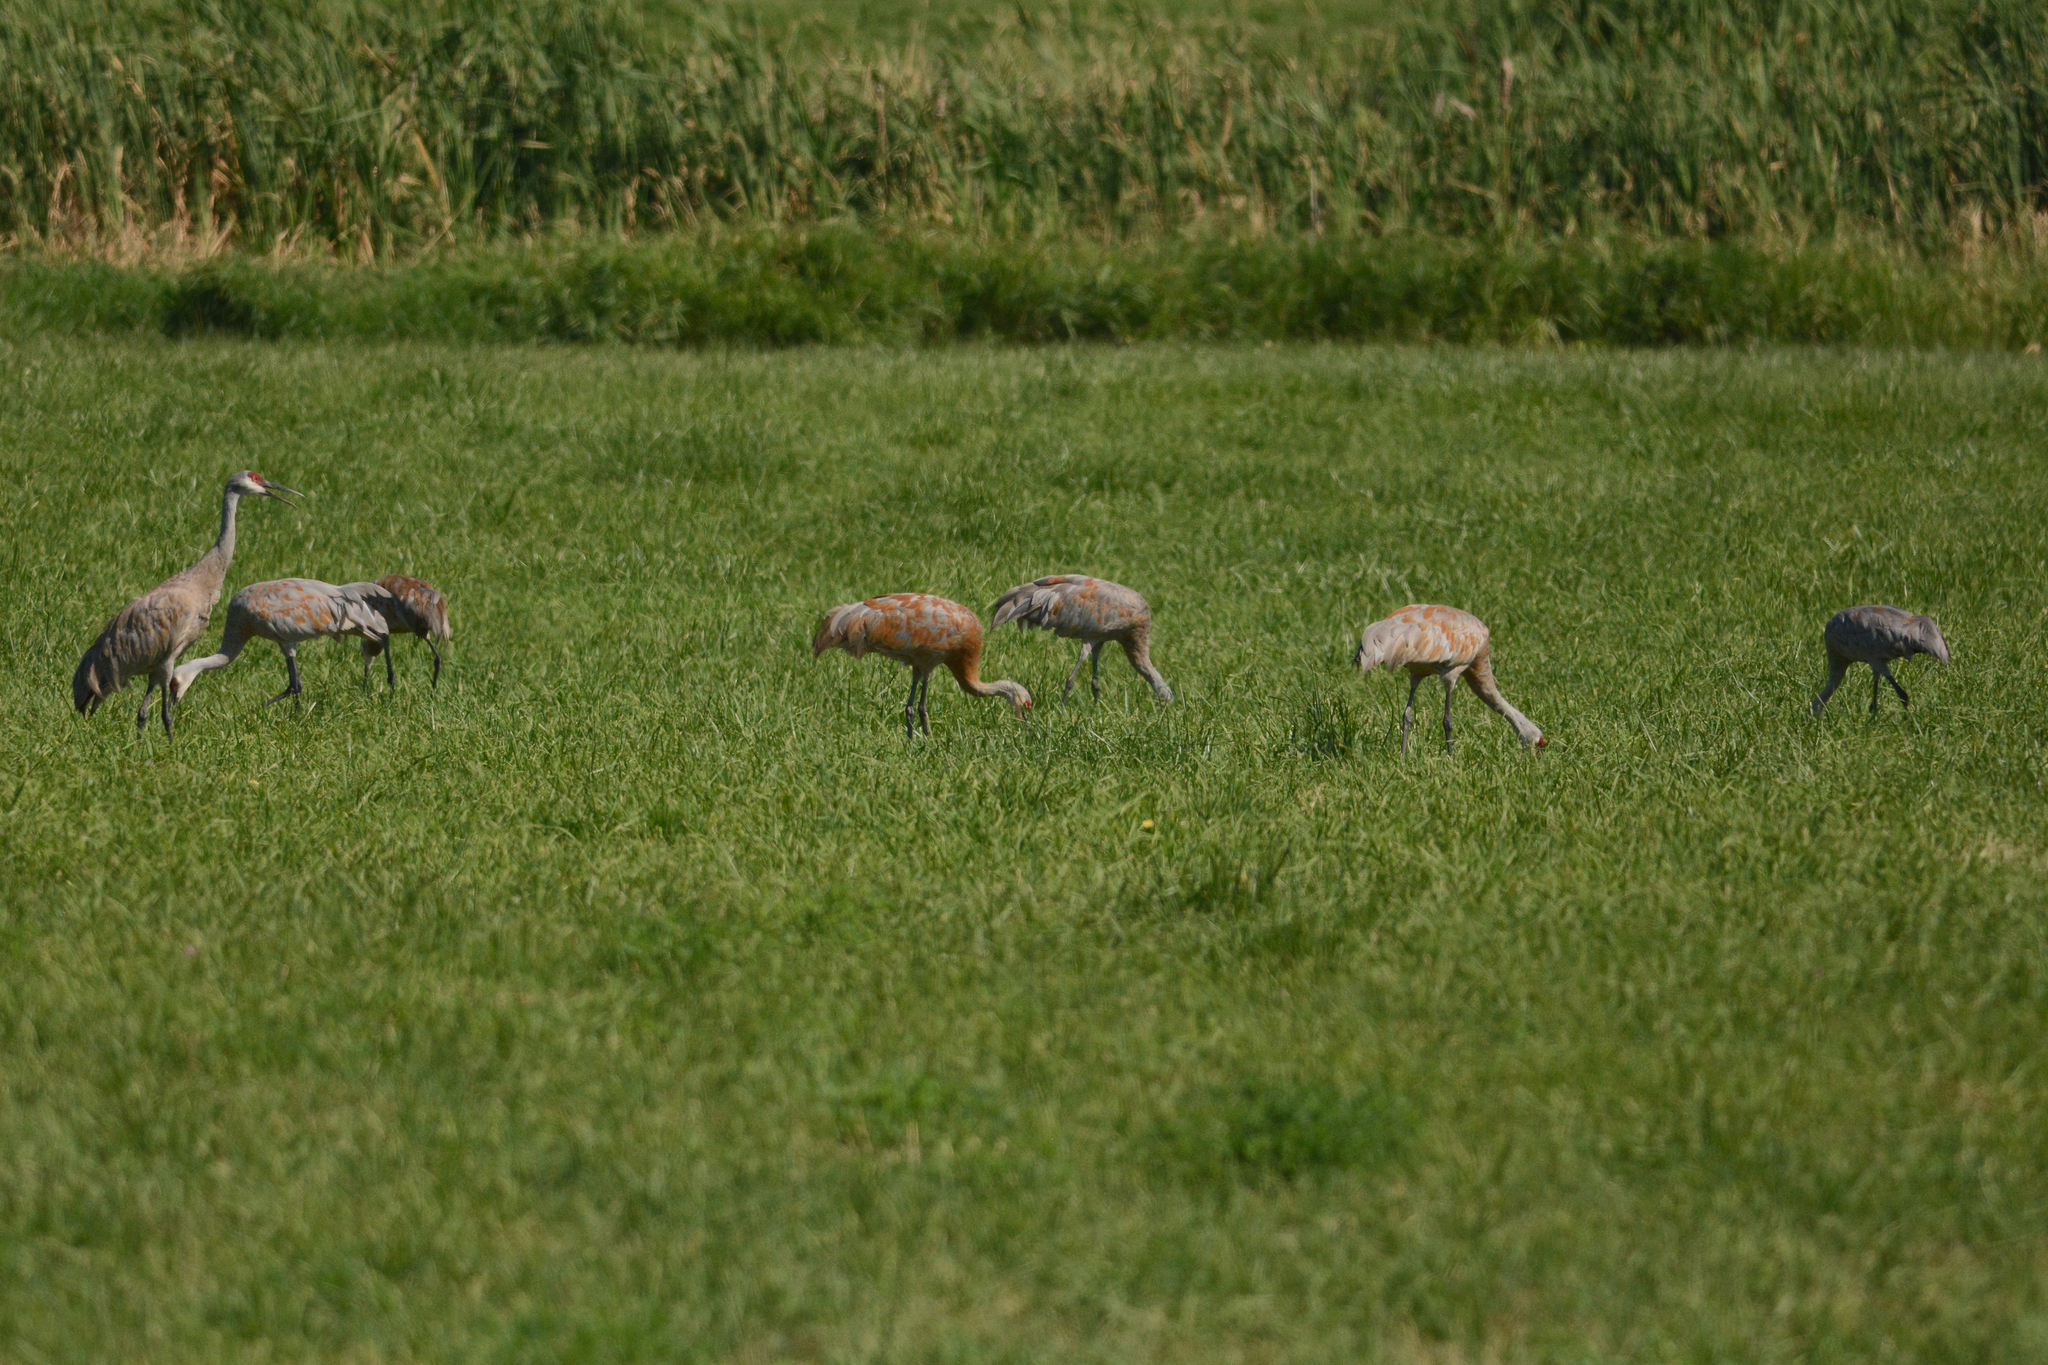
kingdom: Animalia
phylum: Chordata
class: Aves
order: Gruiformes
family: Gruidae
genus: Grus
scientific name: Grus canadensis
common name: Sandhill crane
